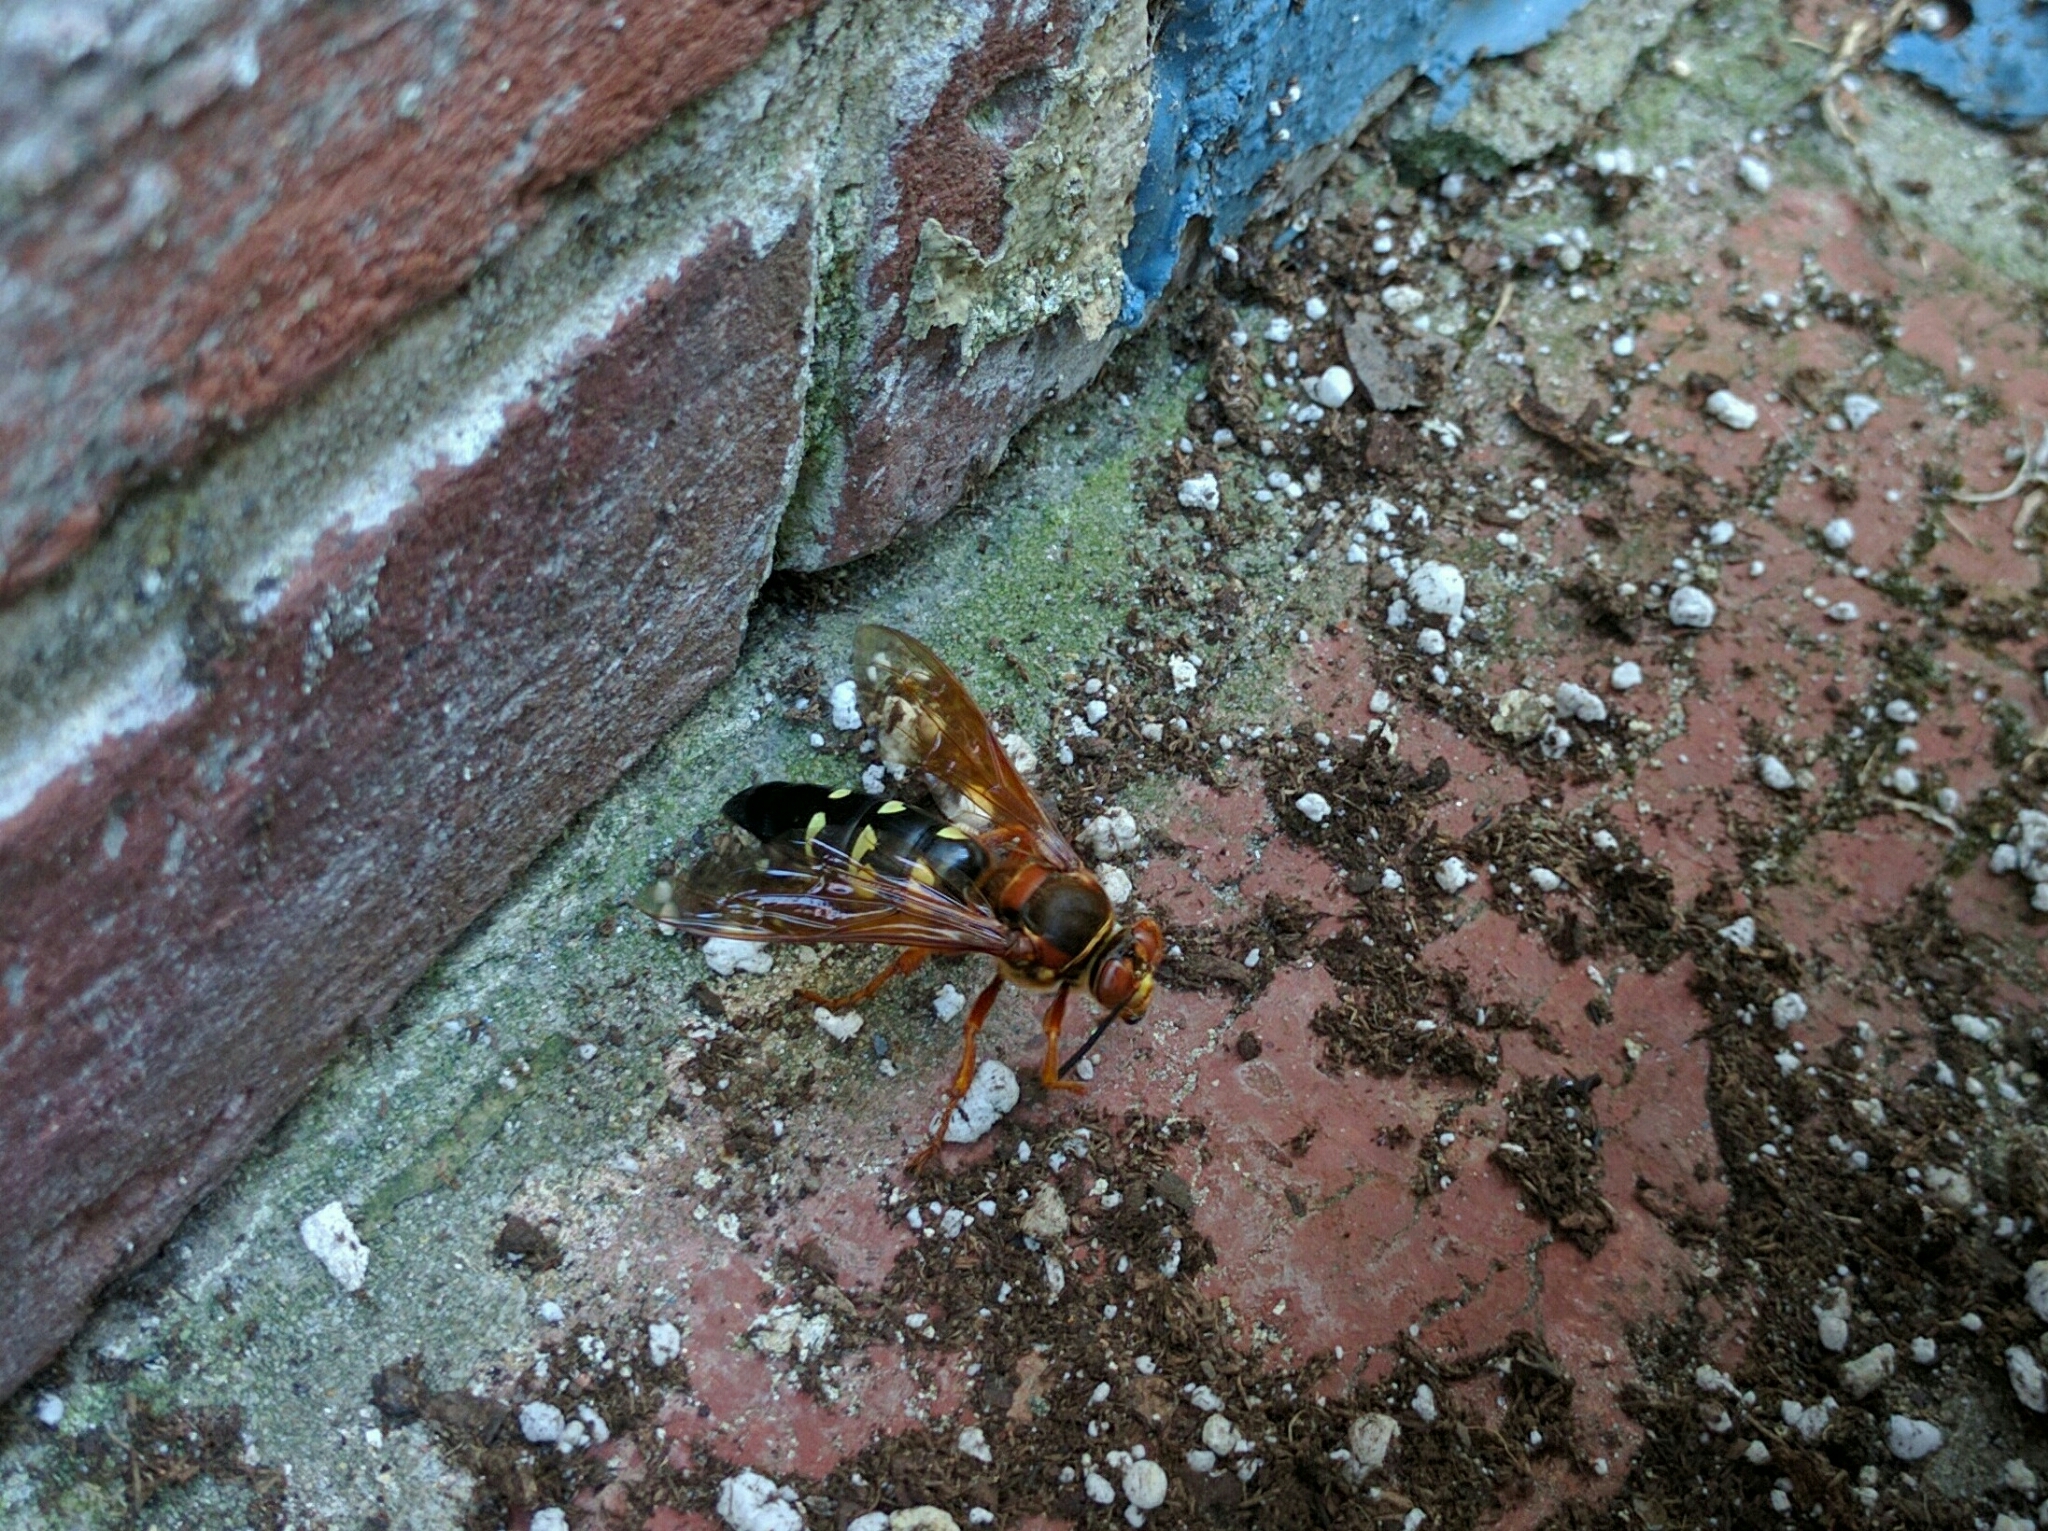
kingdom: Animalia
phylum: Arthropoda
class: Insecta
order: Hymenoptera
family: Crabronidae
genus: Sphecius
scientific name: Sphecius speciosus
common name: Cicada killer
